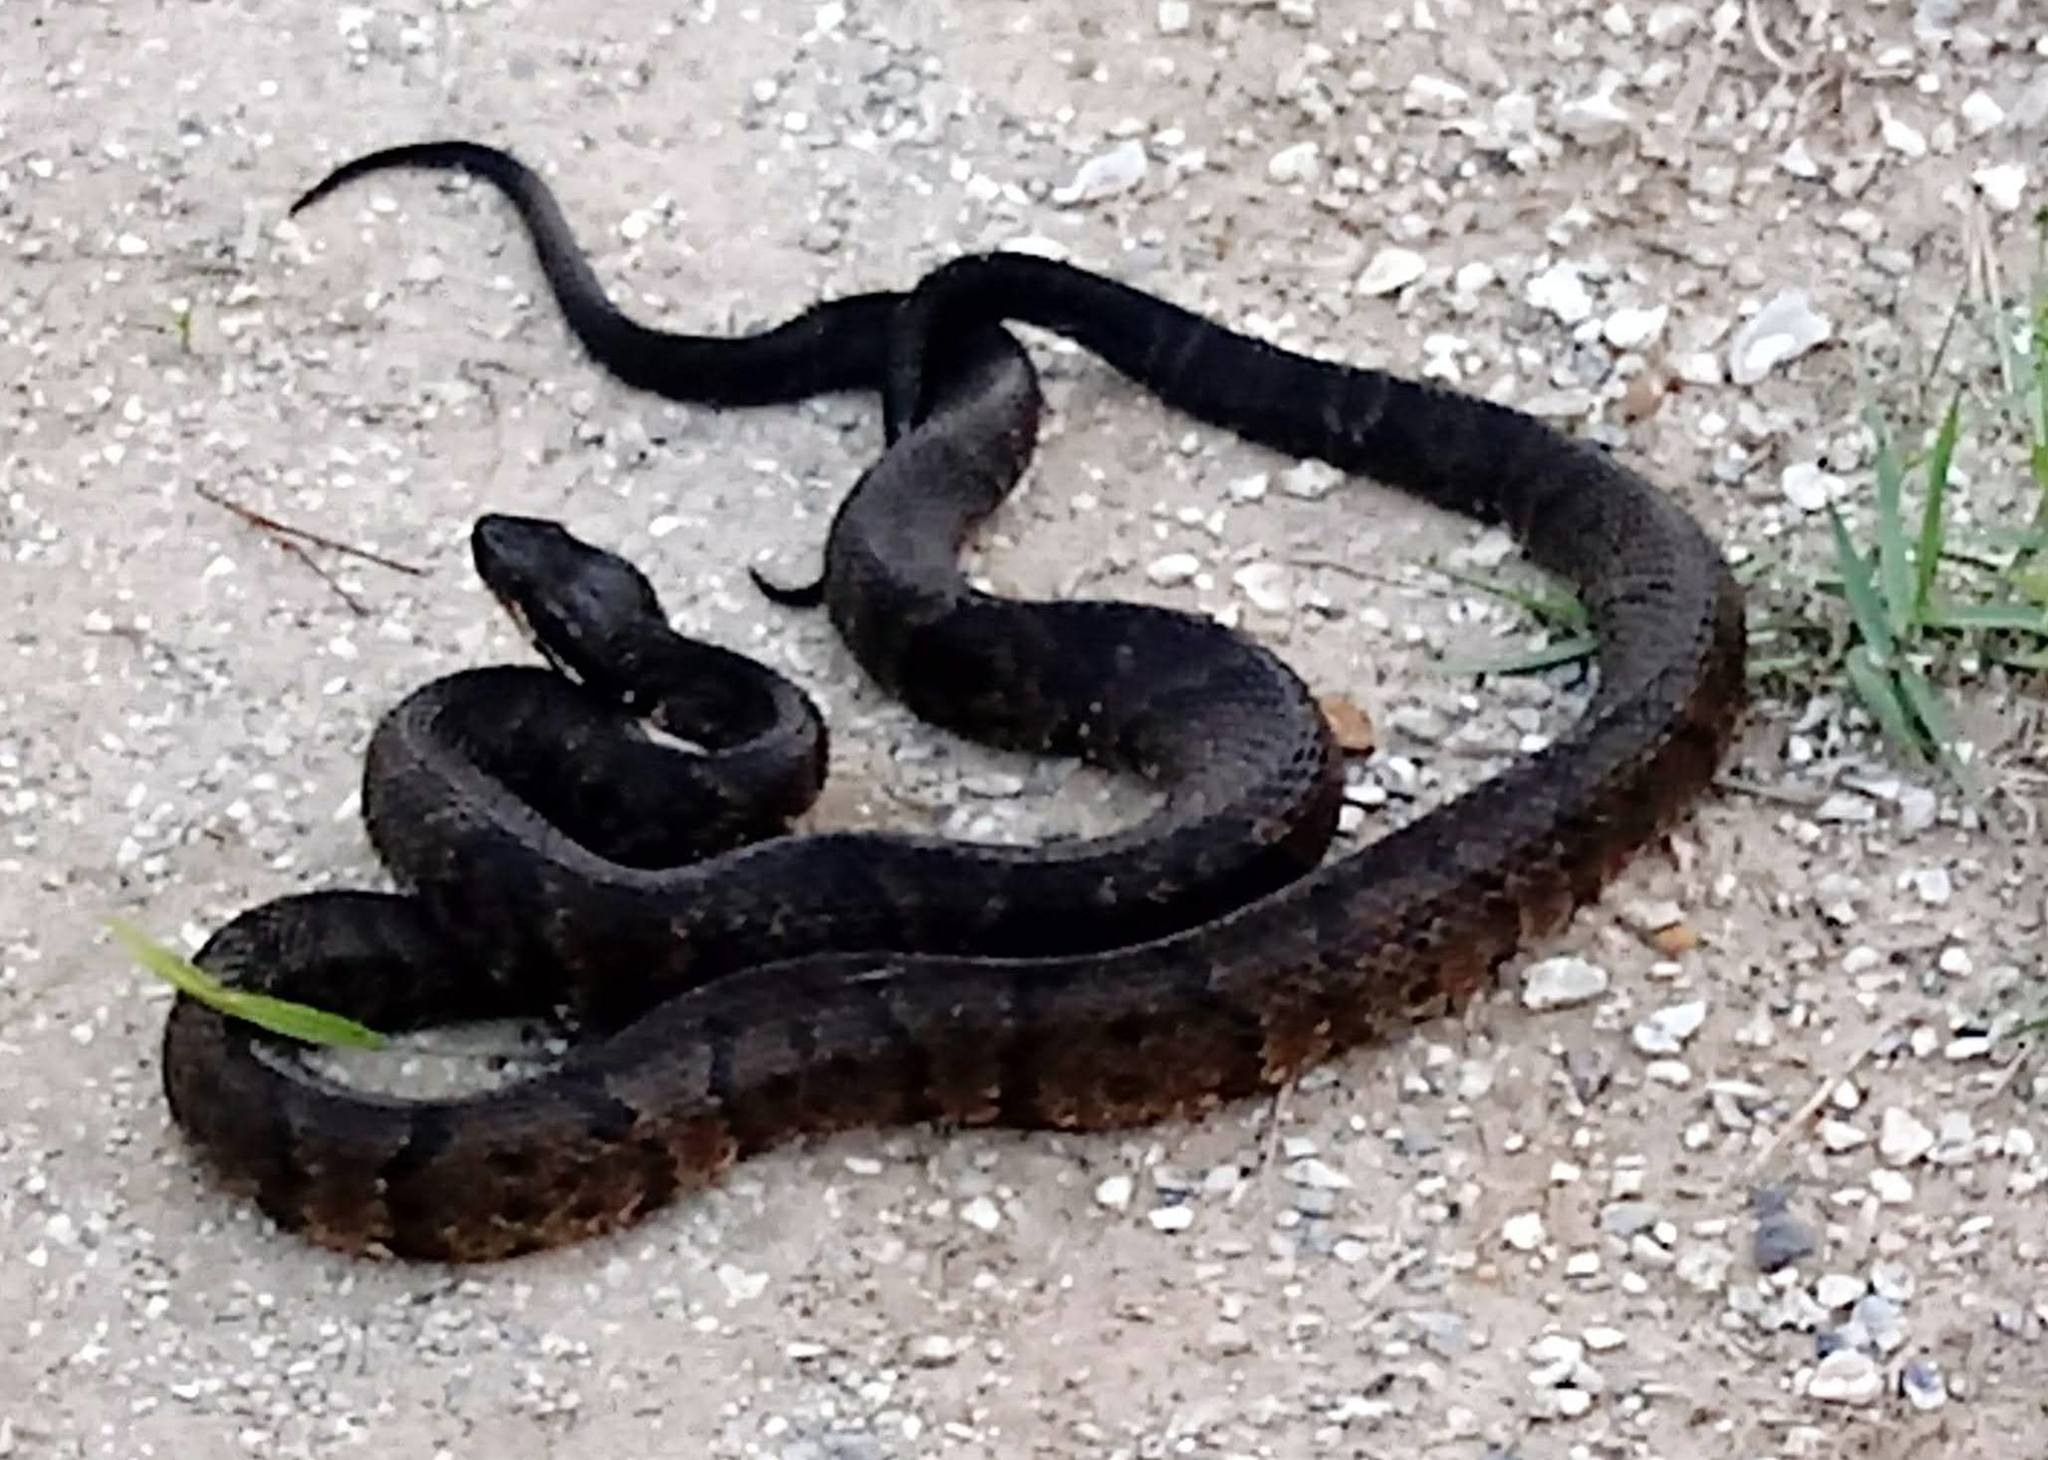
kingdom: Animalia
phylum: Chordata
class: Squamata
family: Viperidae
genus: Agkistrodon
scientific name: Agkistrodon piscivorus
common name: Cottonmouth
